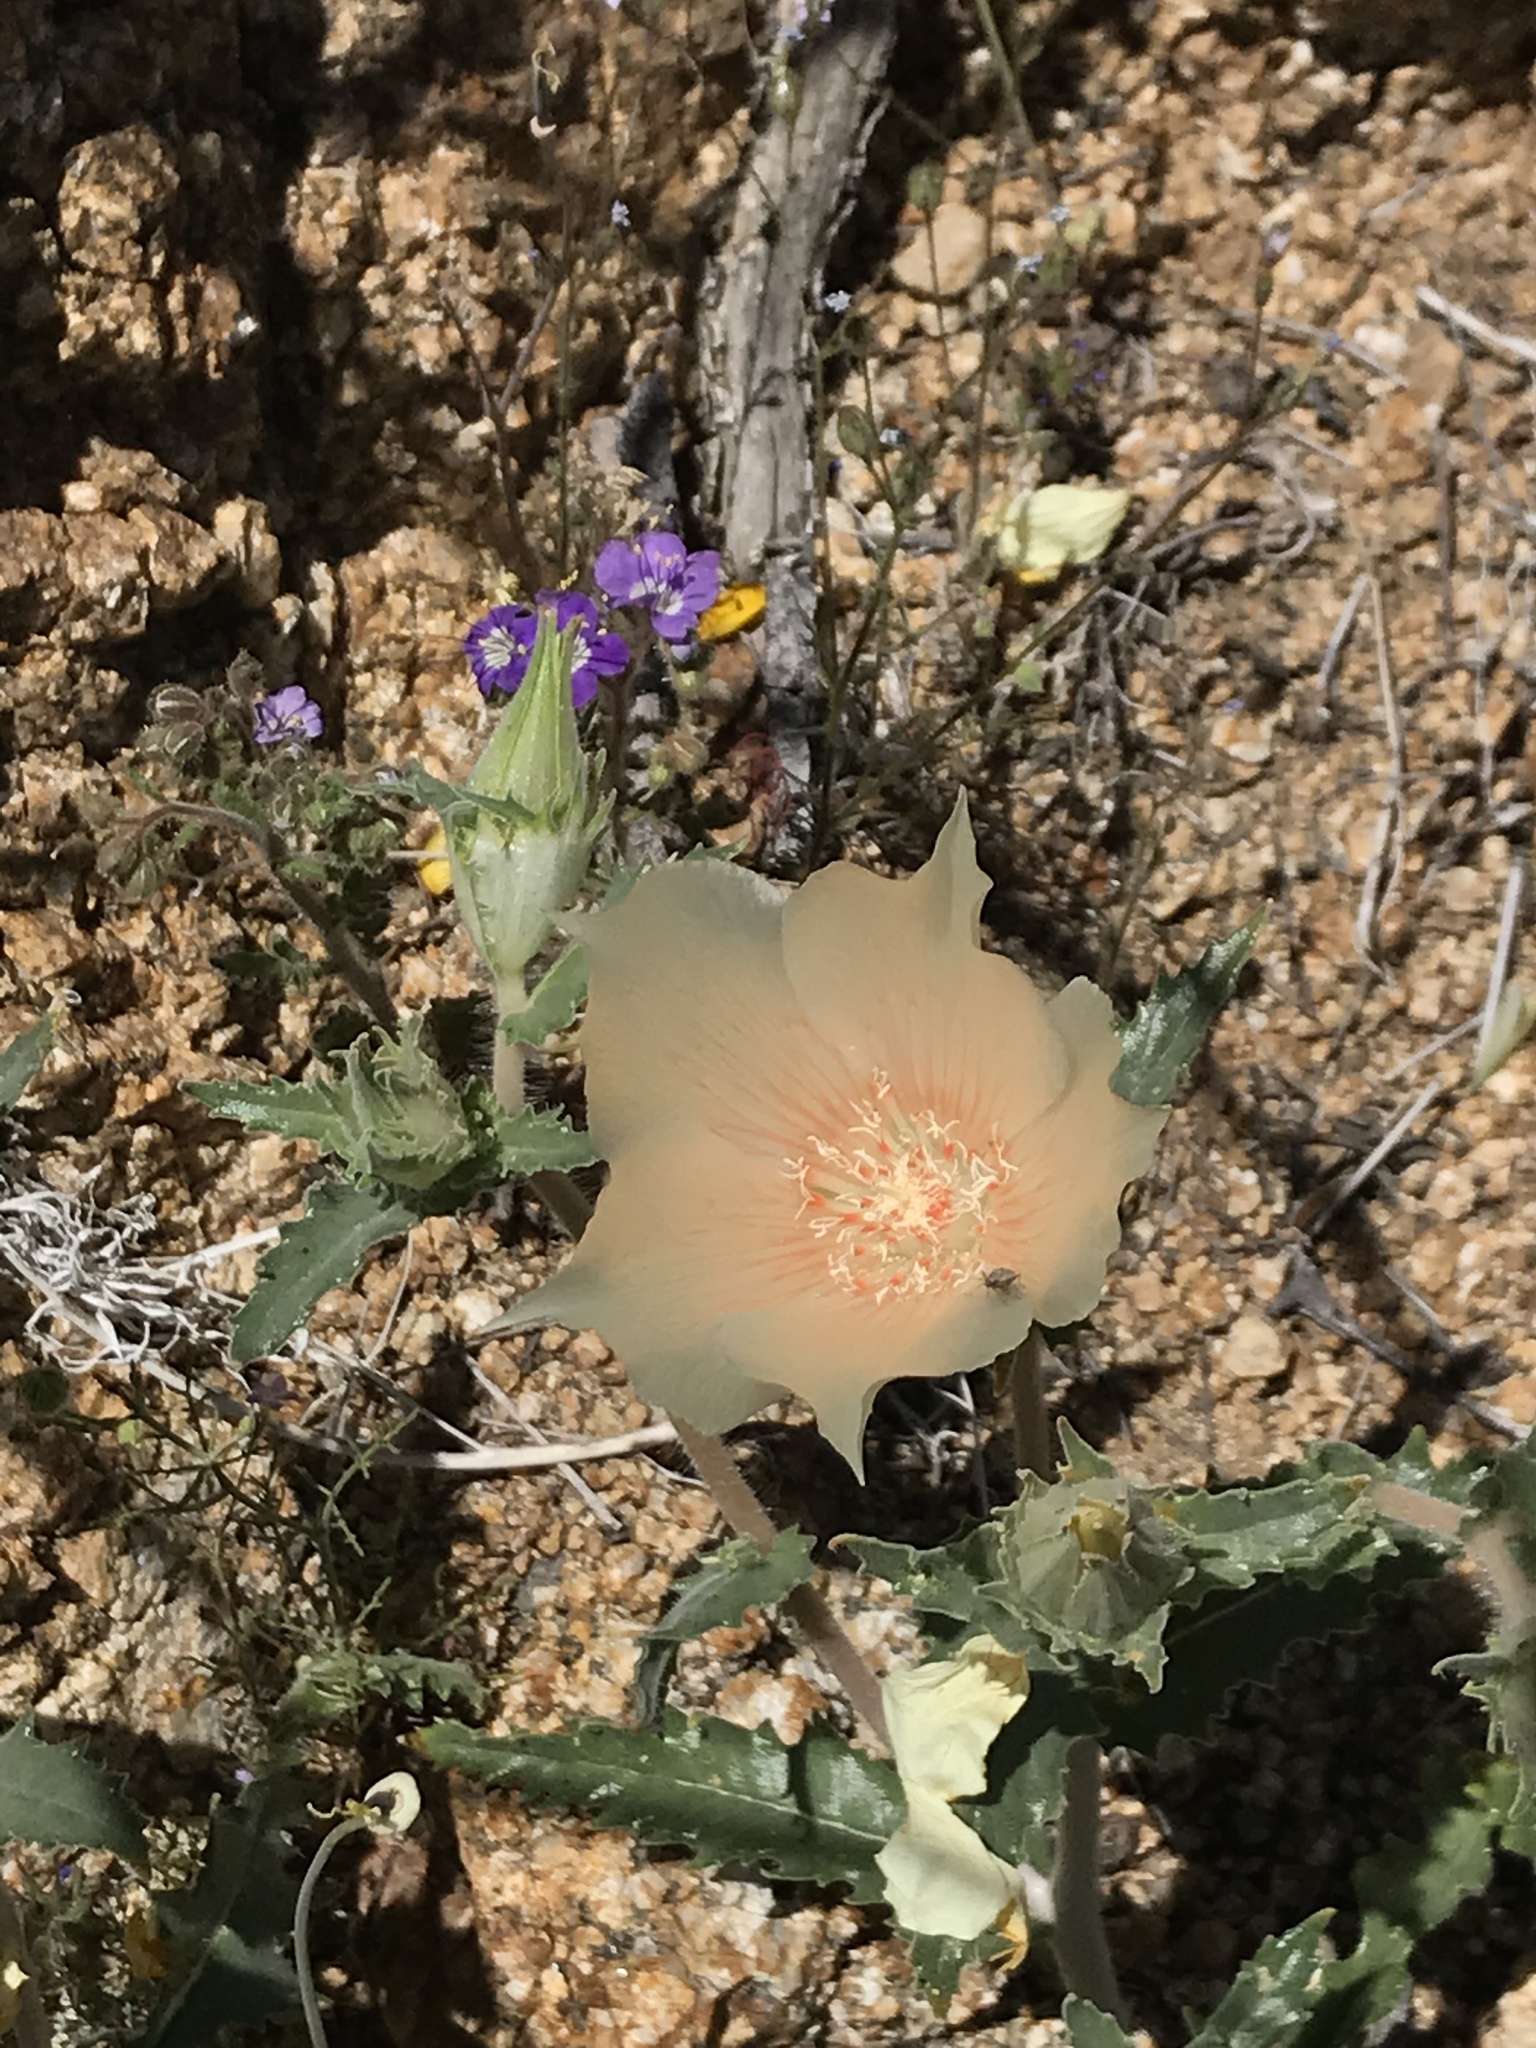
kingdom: Plantae
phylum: Tracheophyta
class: Magnoliopsida
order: Cornales
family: Loasaceae
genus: Mentzelia
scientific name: Mentzelia involucrata
